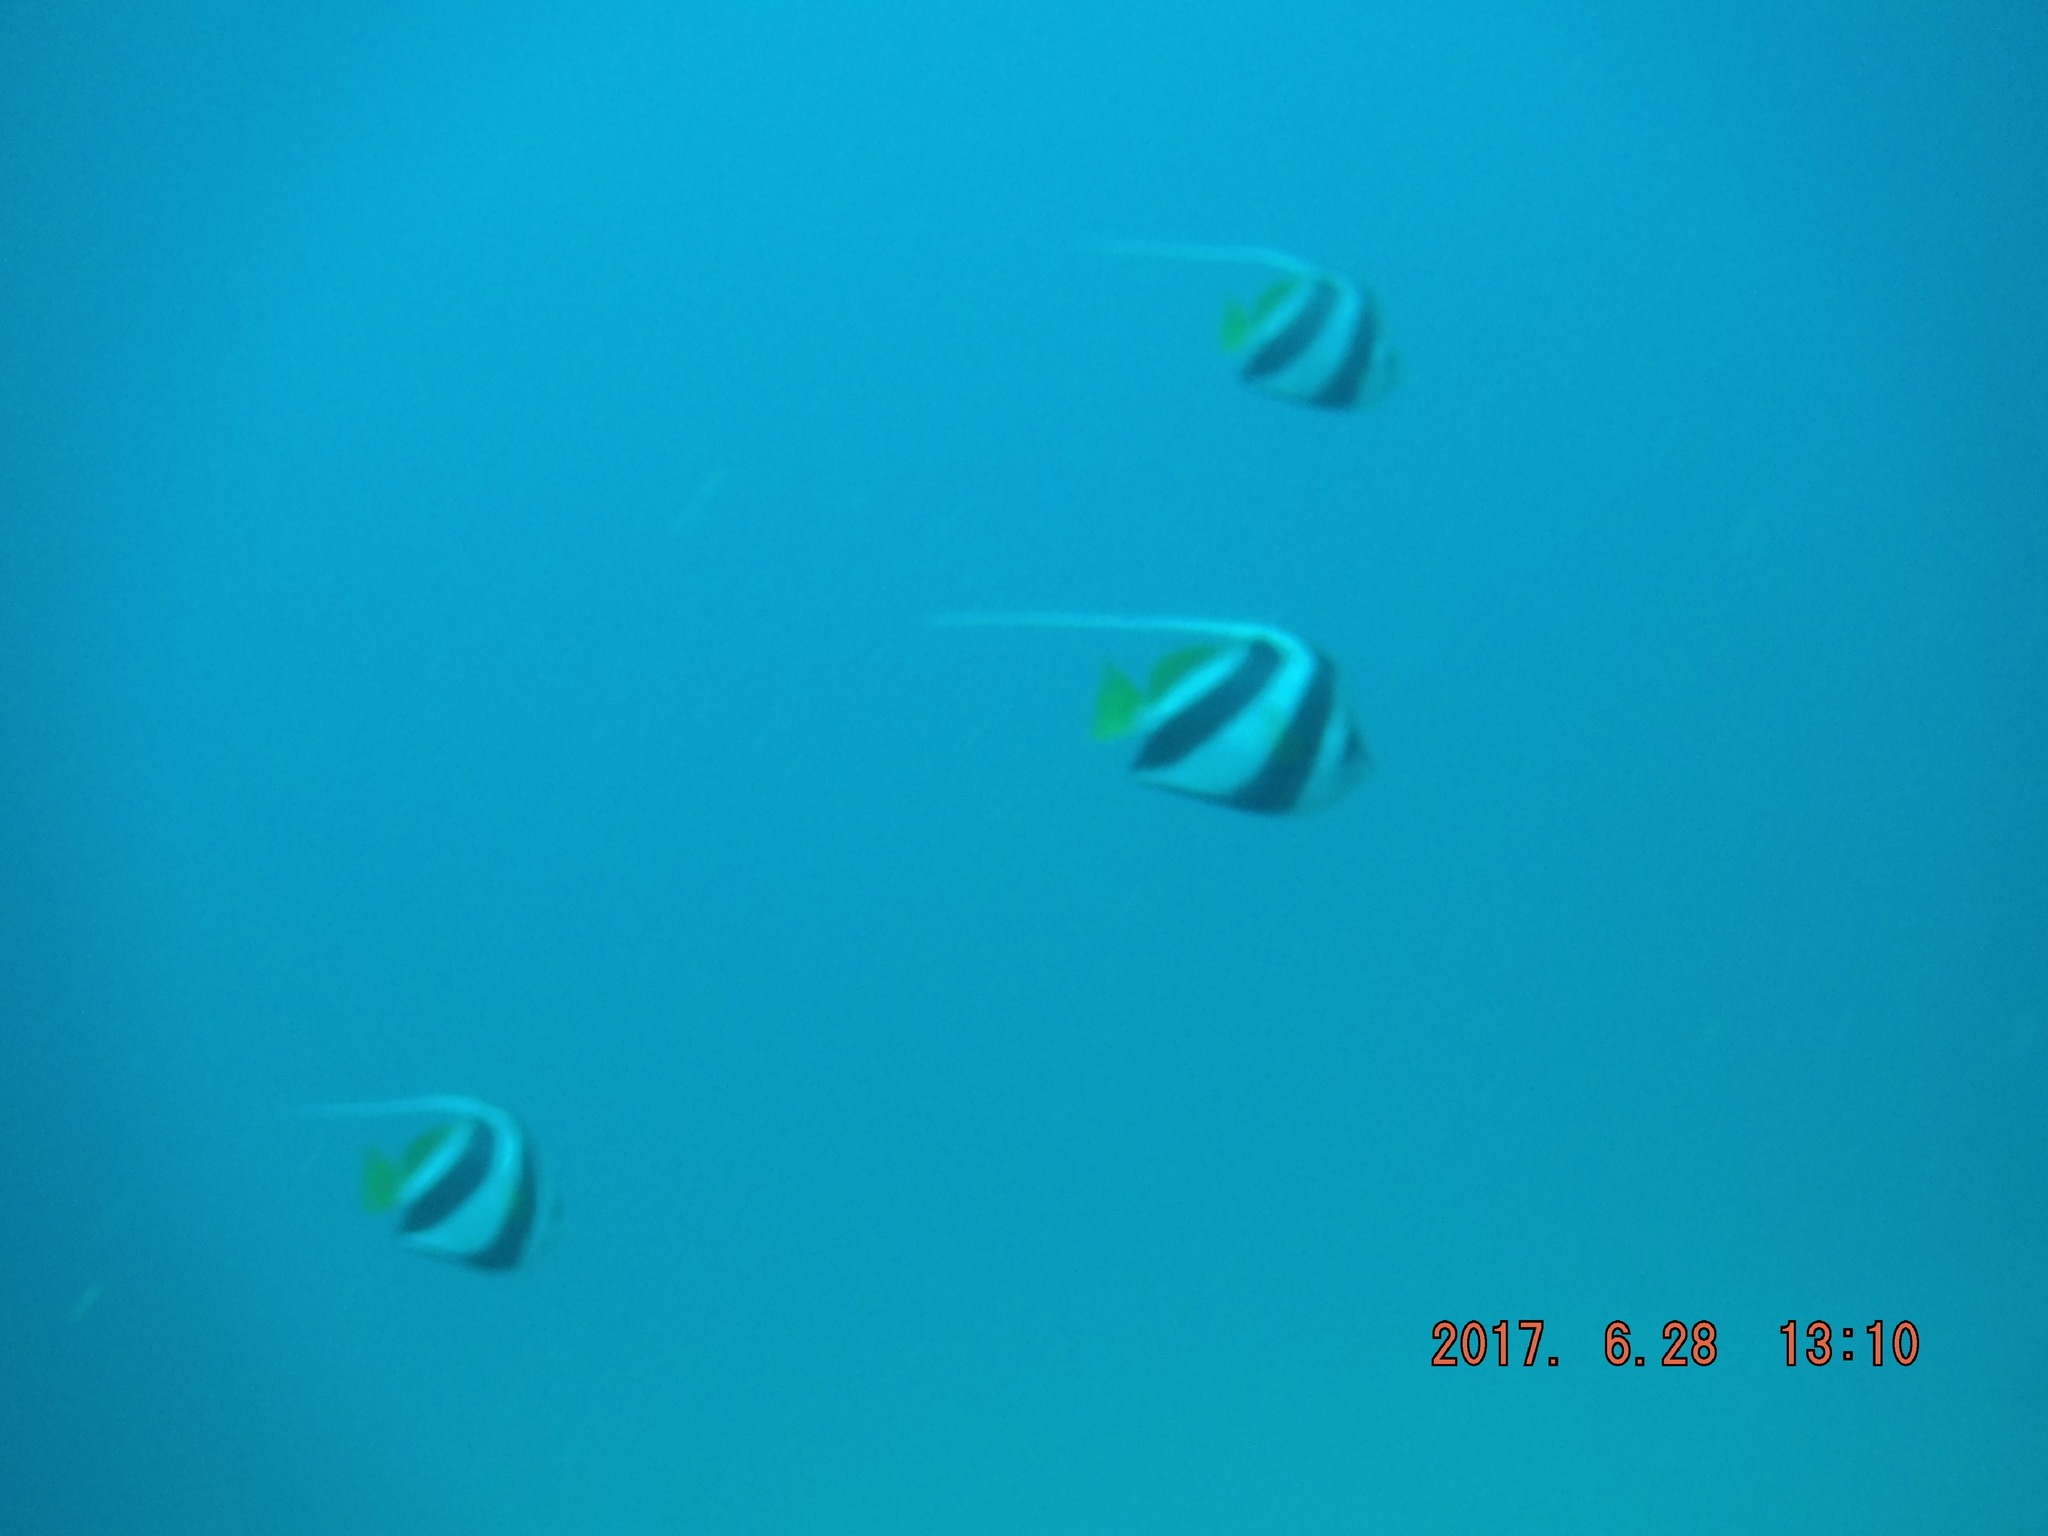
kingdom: Animalia
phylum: Chordata
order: Perciformes
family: Chaetodontidae
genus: Heniochus
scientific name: Heniochus diphreutes
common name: Pennantfish
